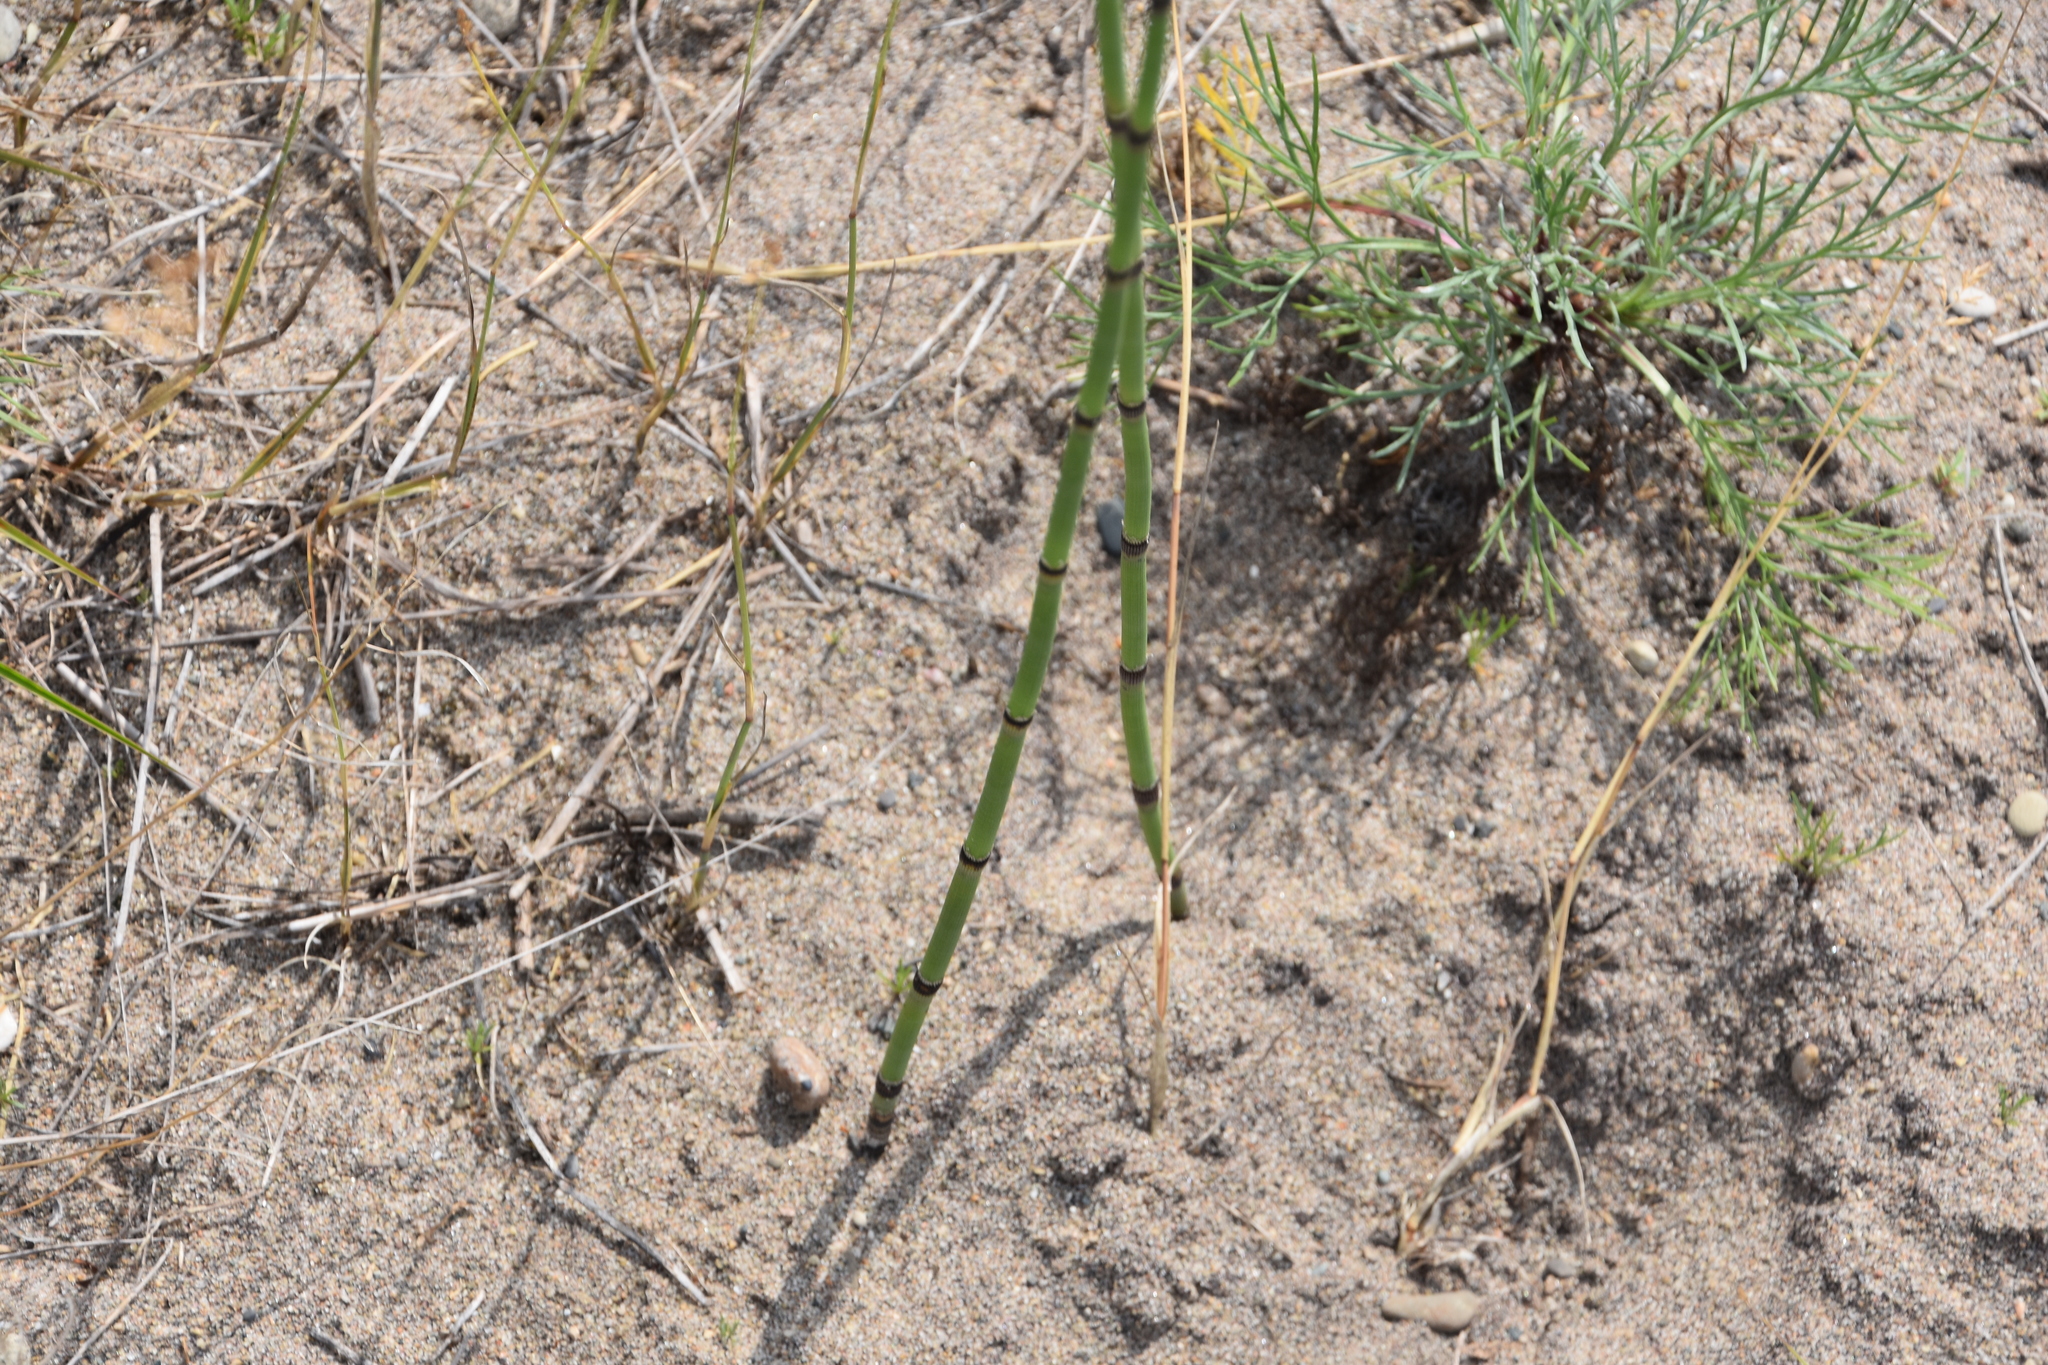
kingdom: Plantae
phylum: Tracheophyta
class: Polypodiopsida
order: Equisetales
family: Equisetaceae
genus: Equisetum
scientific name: Equisetum hyemale
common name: Rough horsetail
